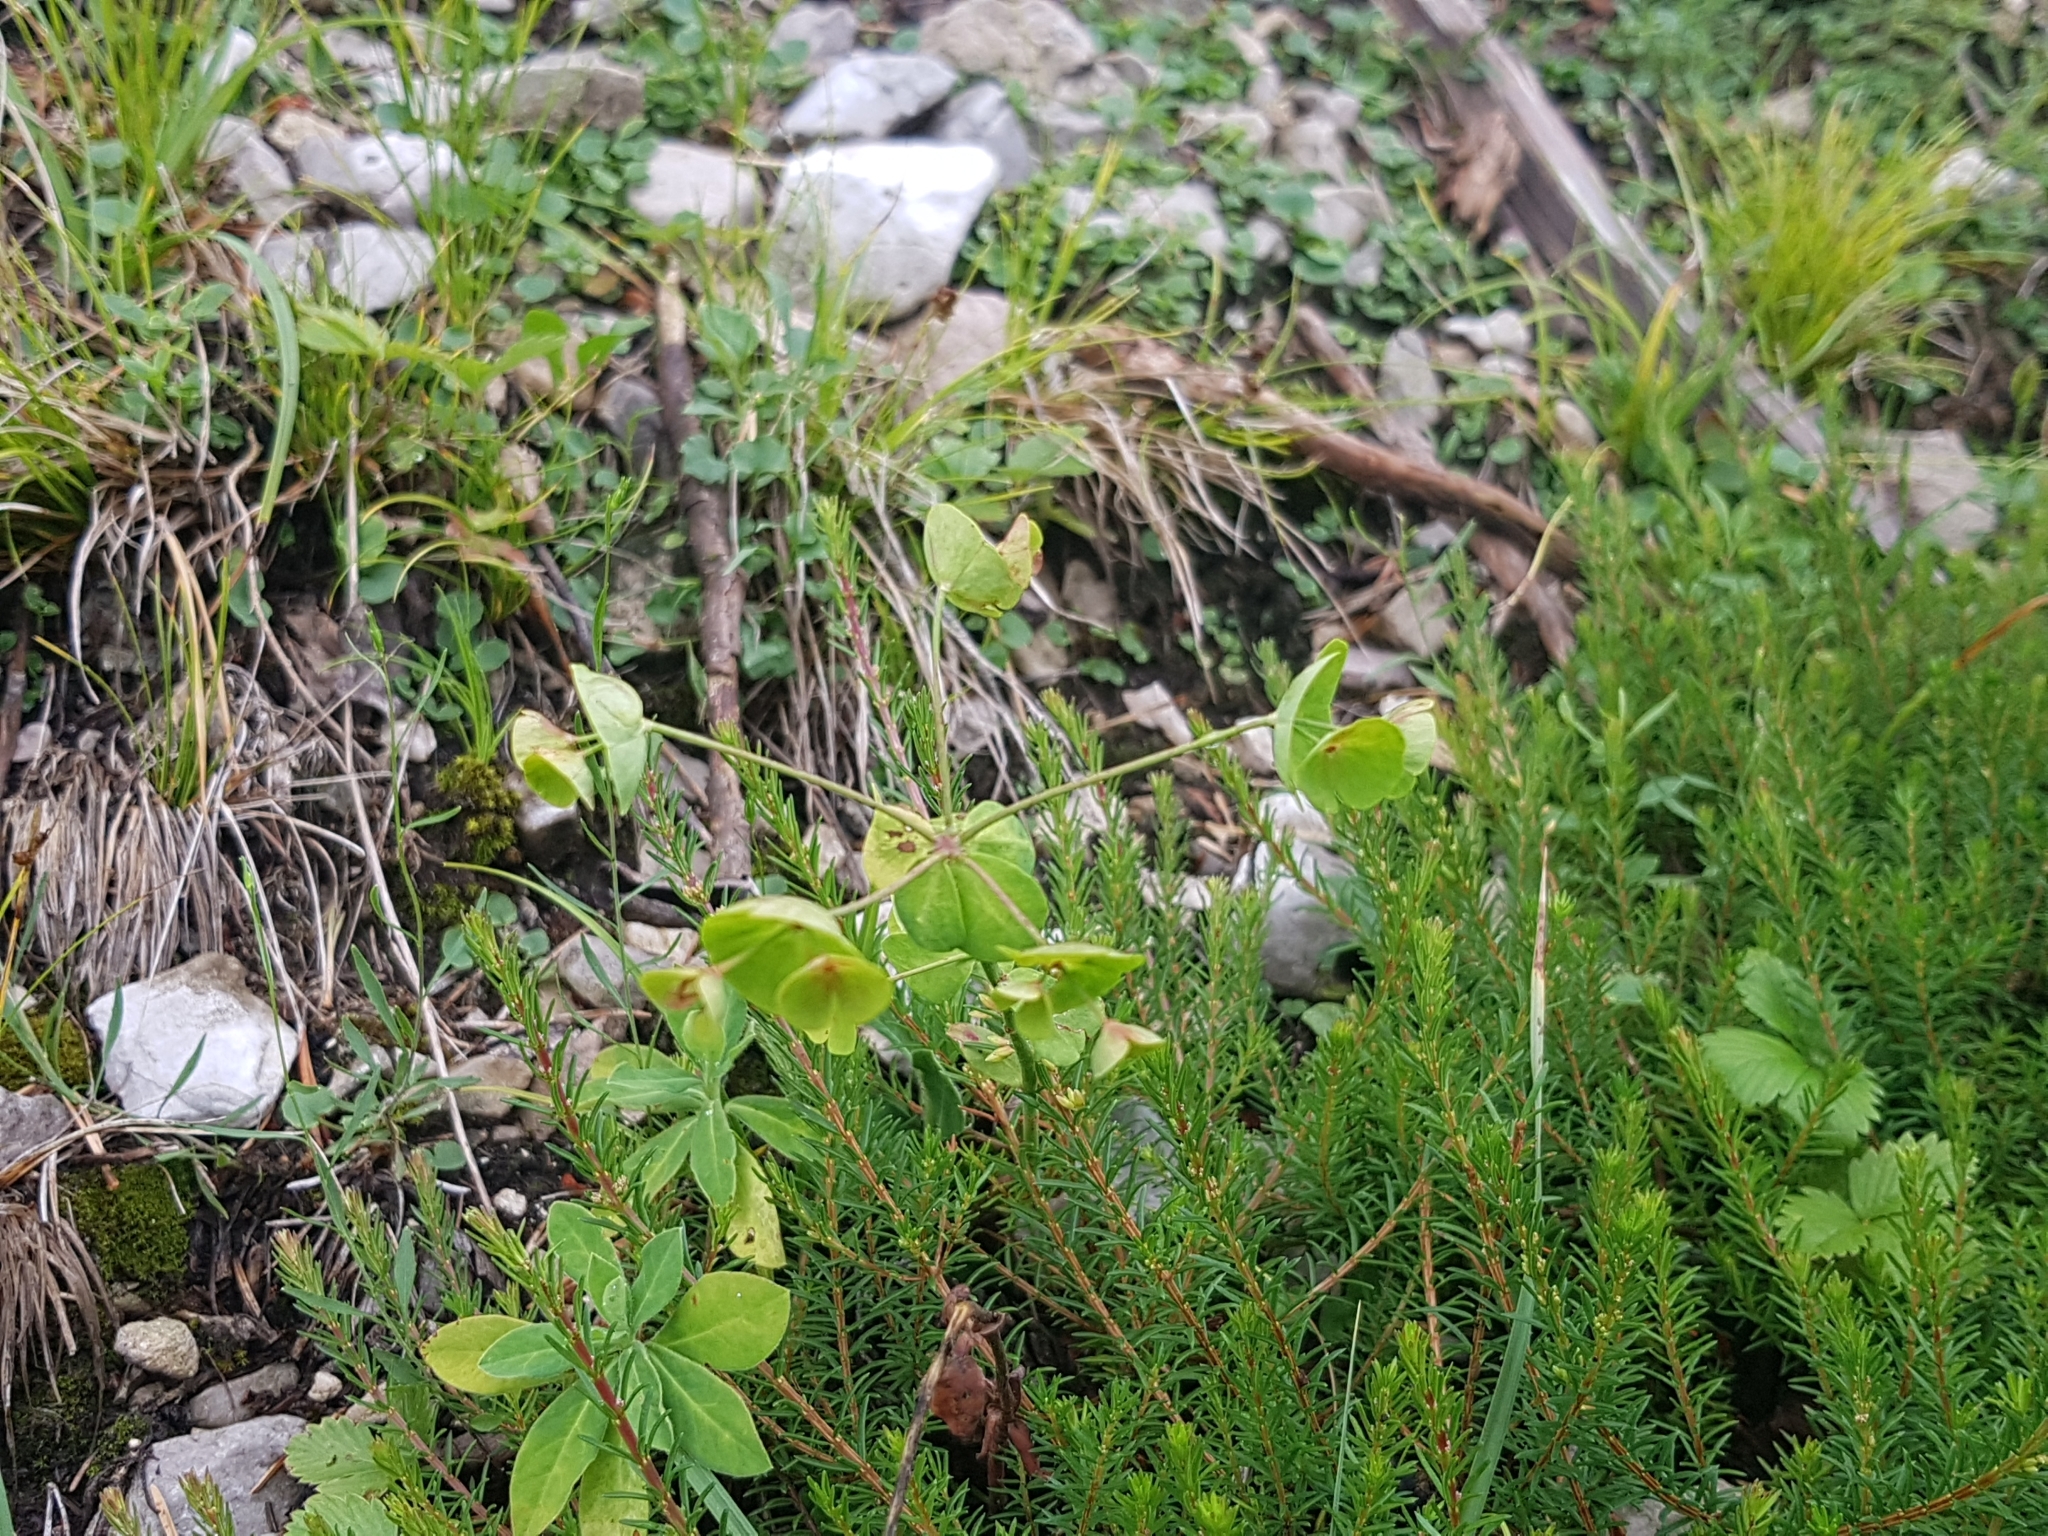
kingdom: Plantae
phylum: Tracheophyta
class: Magnoliopsida
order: Malpighiales
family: Euphorbiaceae
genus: Euphorbia
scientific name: Euphorbia amygdaloides
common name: Wood spurge
